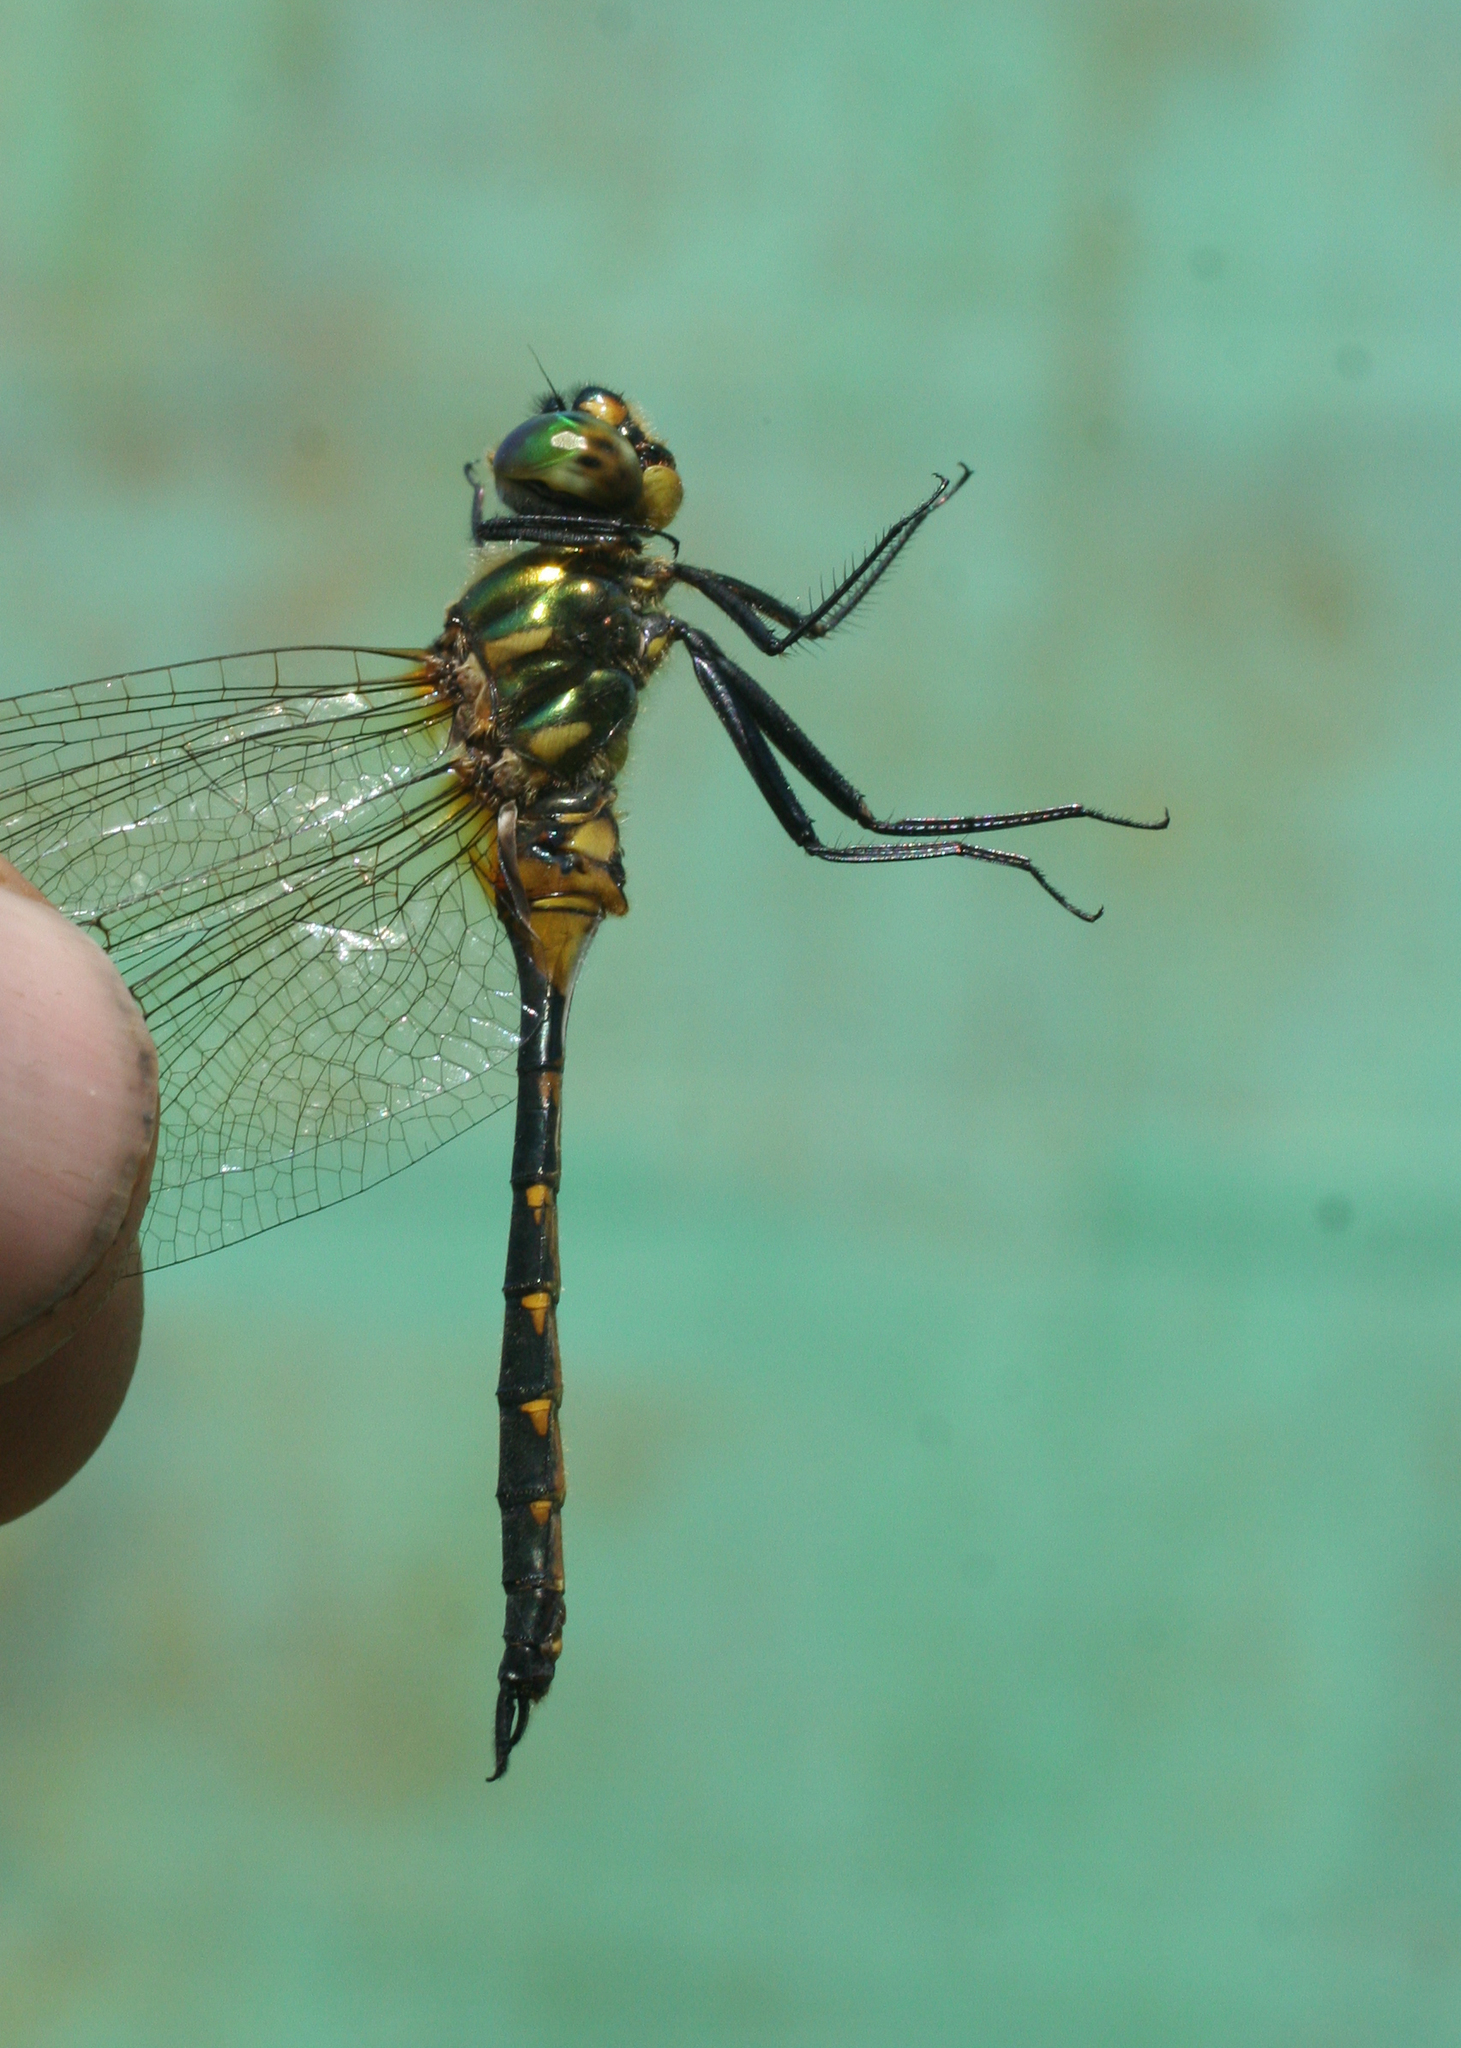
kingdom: Animalia
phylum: Arthropoda
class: Insecta
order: Odonata
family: Corduliidae
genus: Somatochlora
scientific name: Somatochlora flavomaculata
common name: Yellow-spotted emerald
